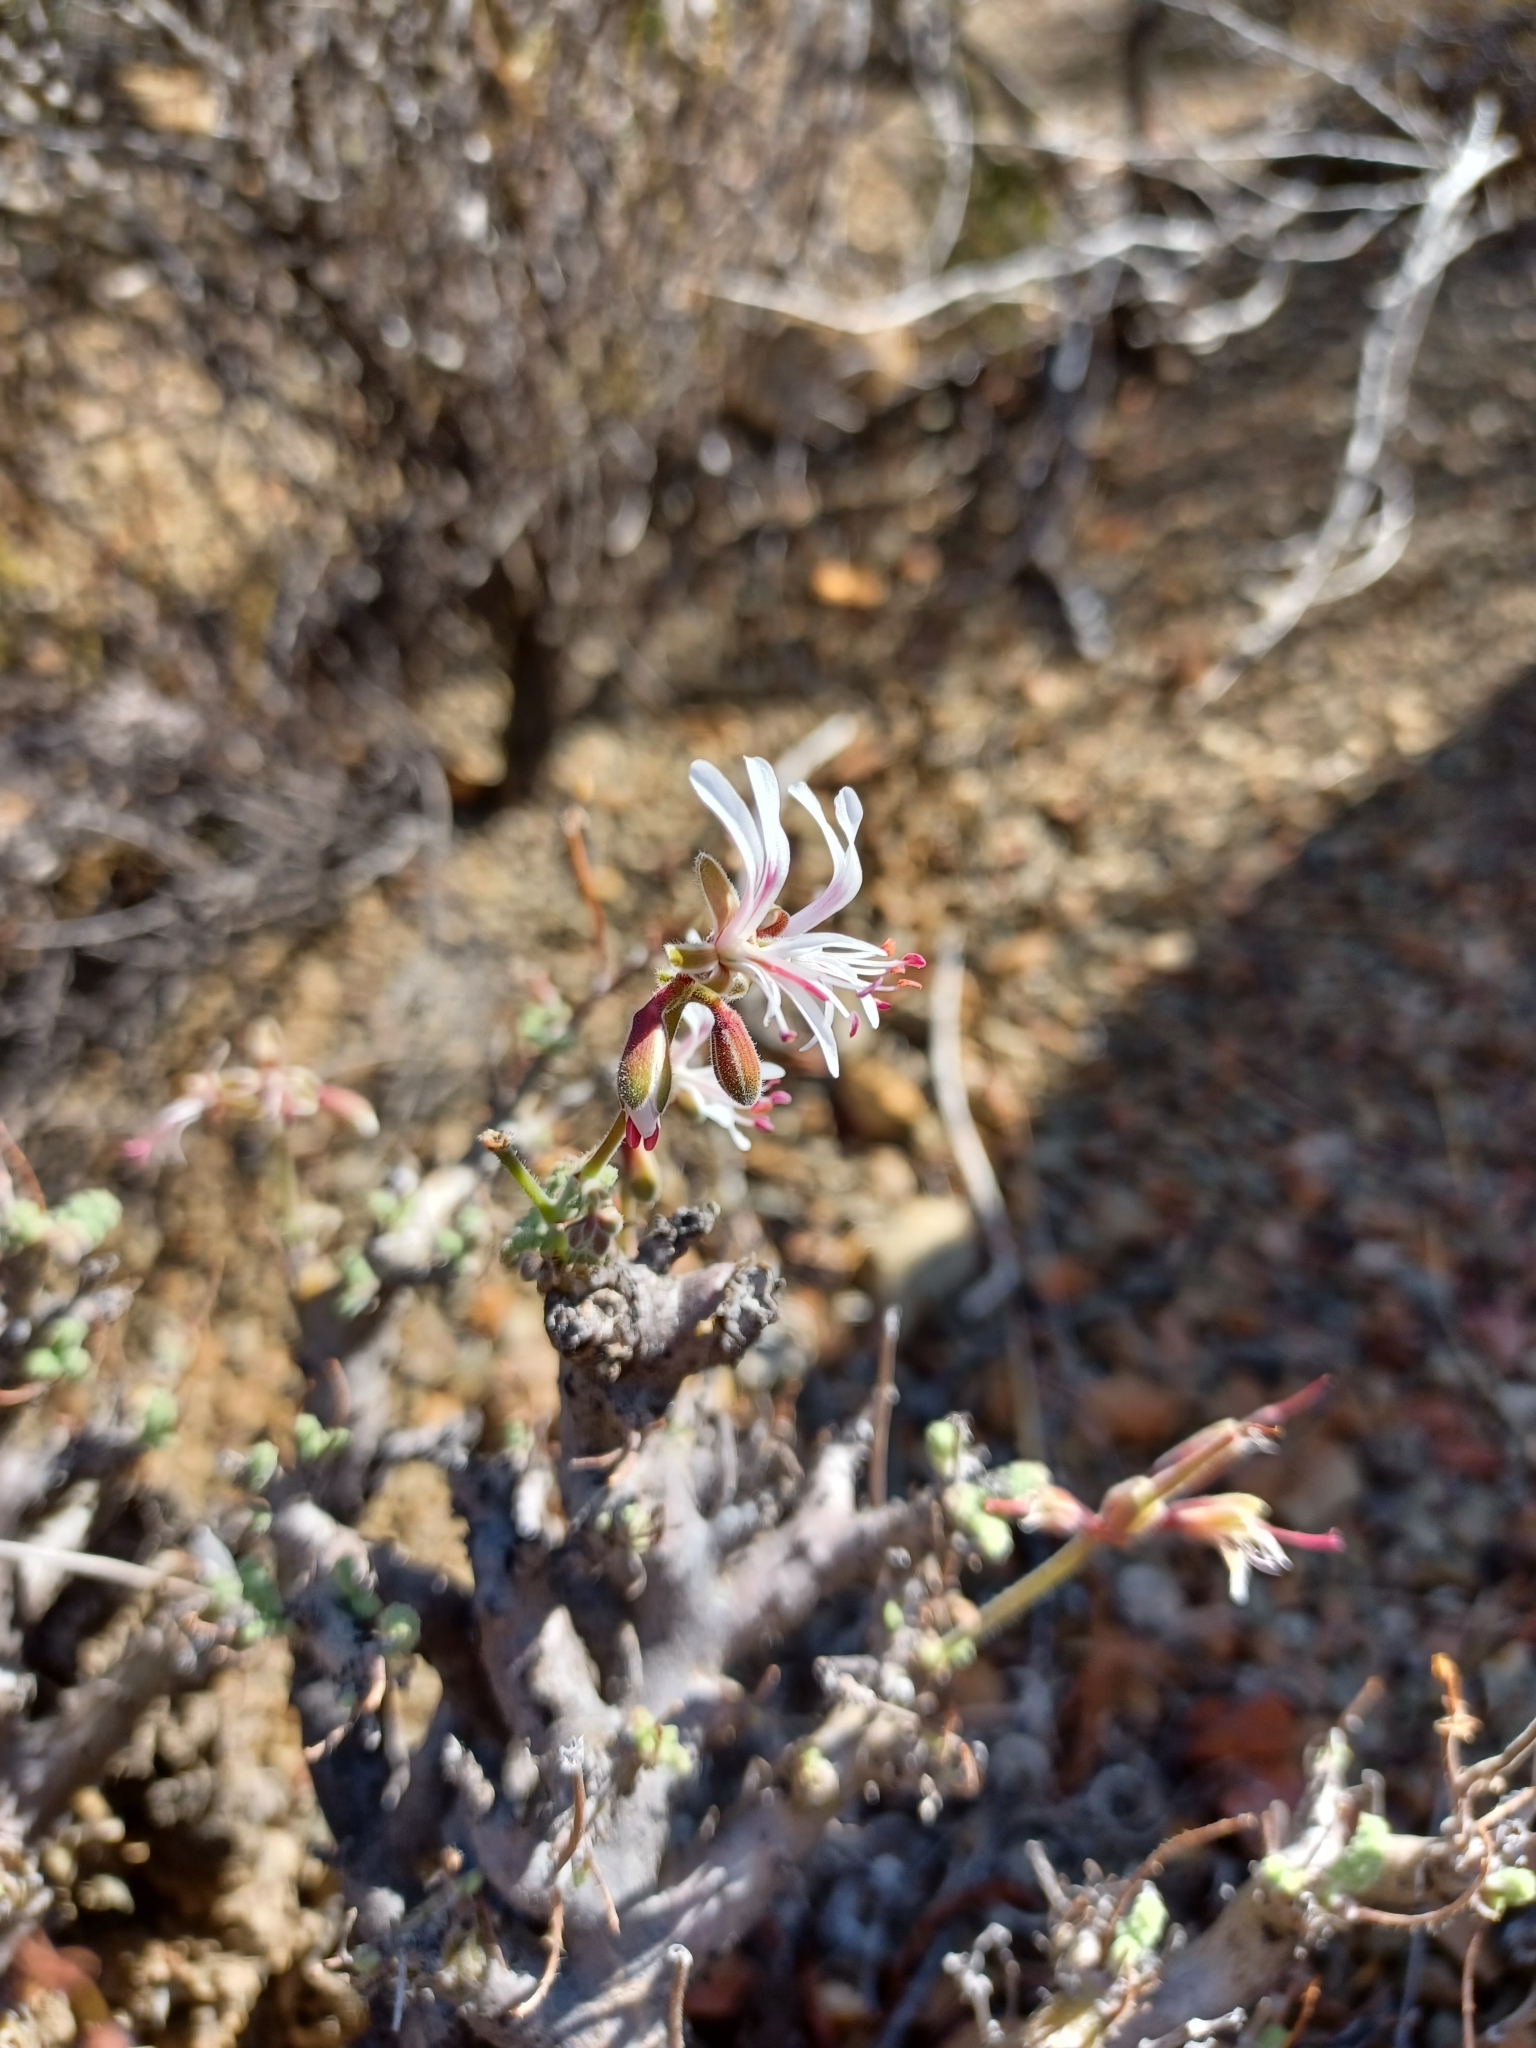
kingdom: Plantae
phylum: Tracheophyta
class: Magnoliopsida
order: Geraniales
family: Geraniaceae
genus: Pelargonium
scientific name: Pelargonium alternans
